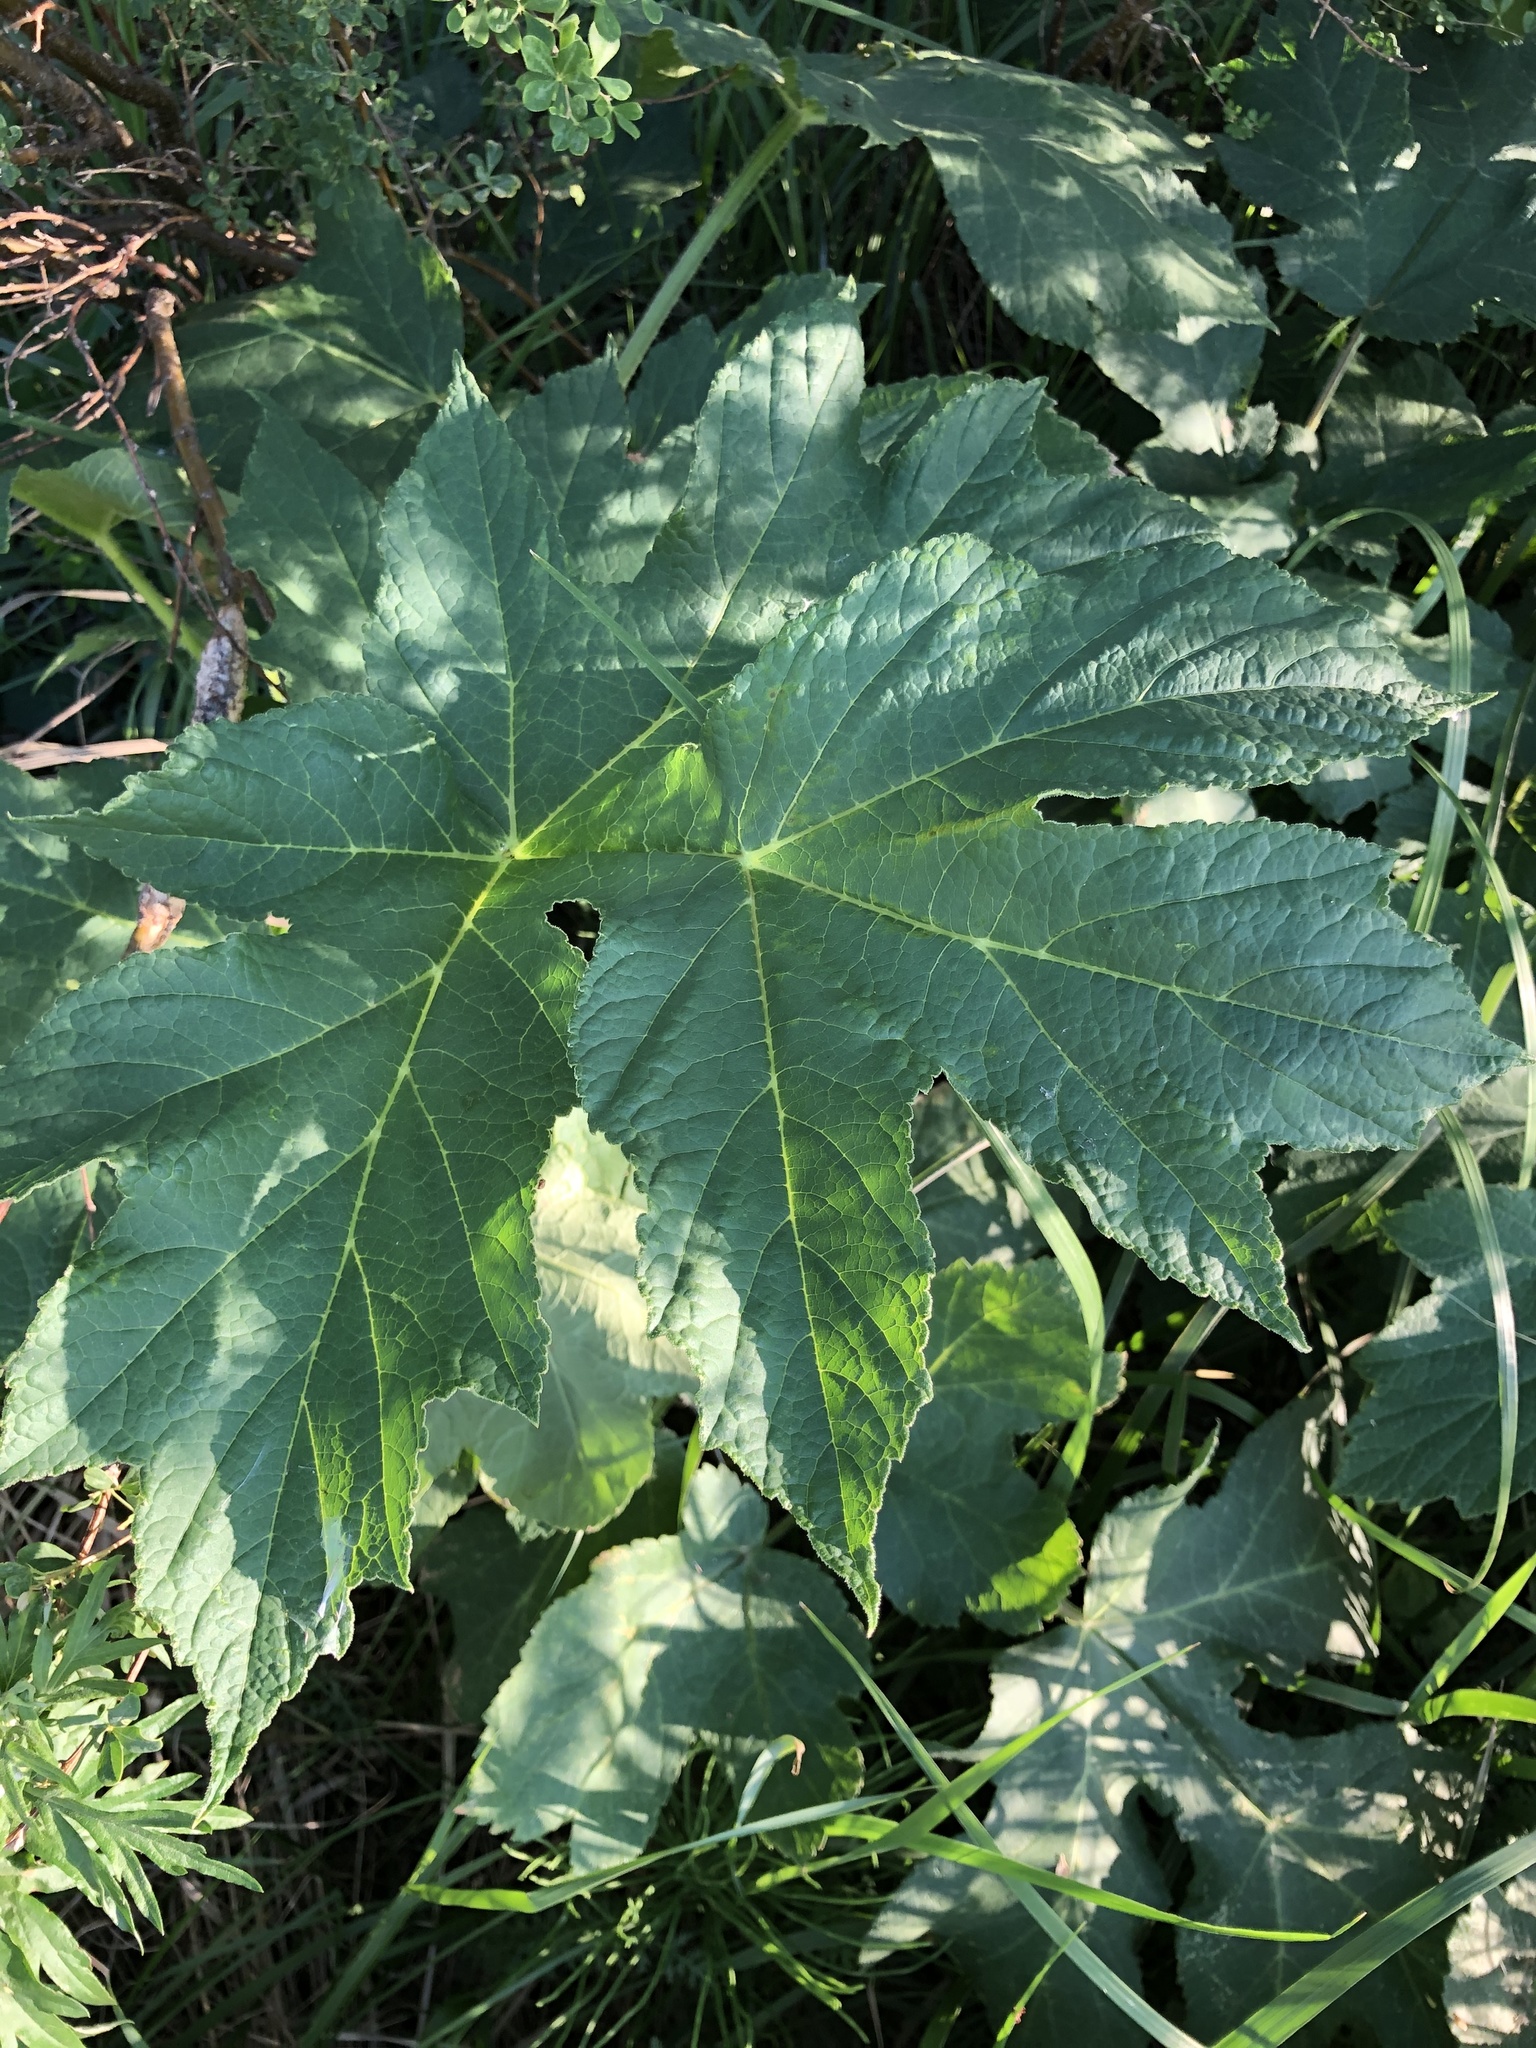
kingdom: Plantae
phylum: Tracheophyta
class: Magnoliopsida
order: Apiales
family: Apiaceae
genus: Heracleum
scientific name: Heracleum sphondylium
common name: Hogweed
